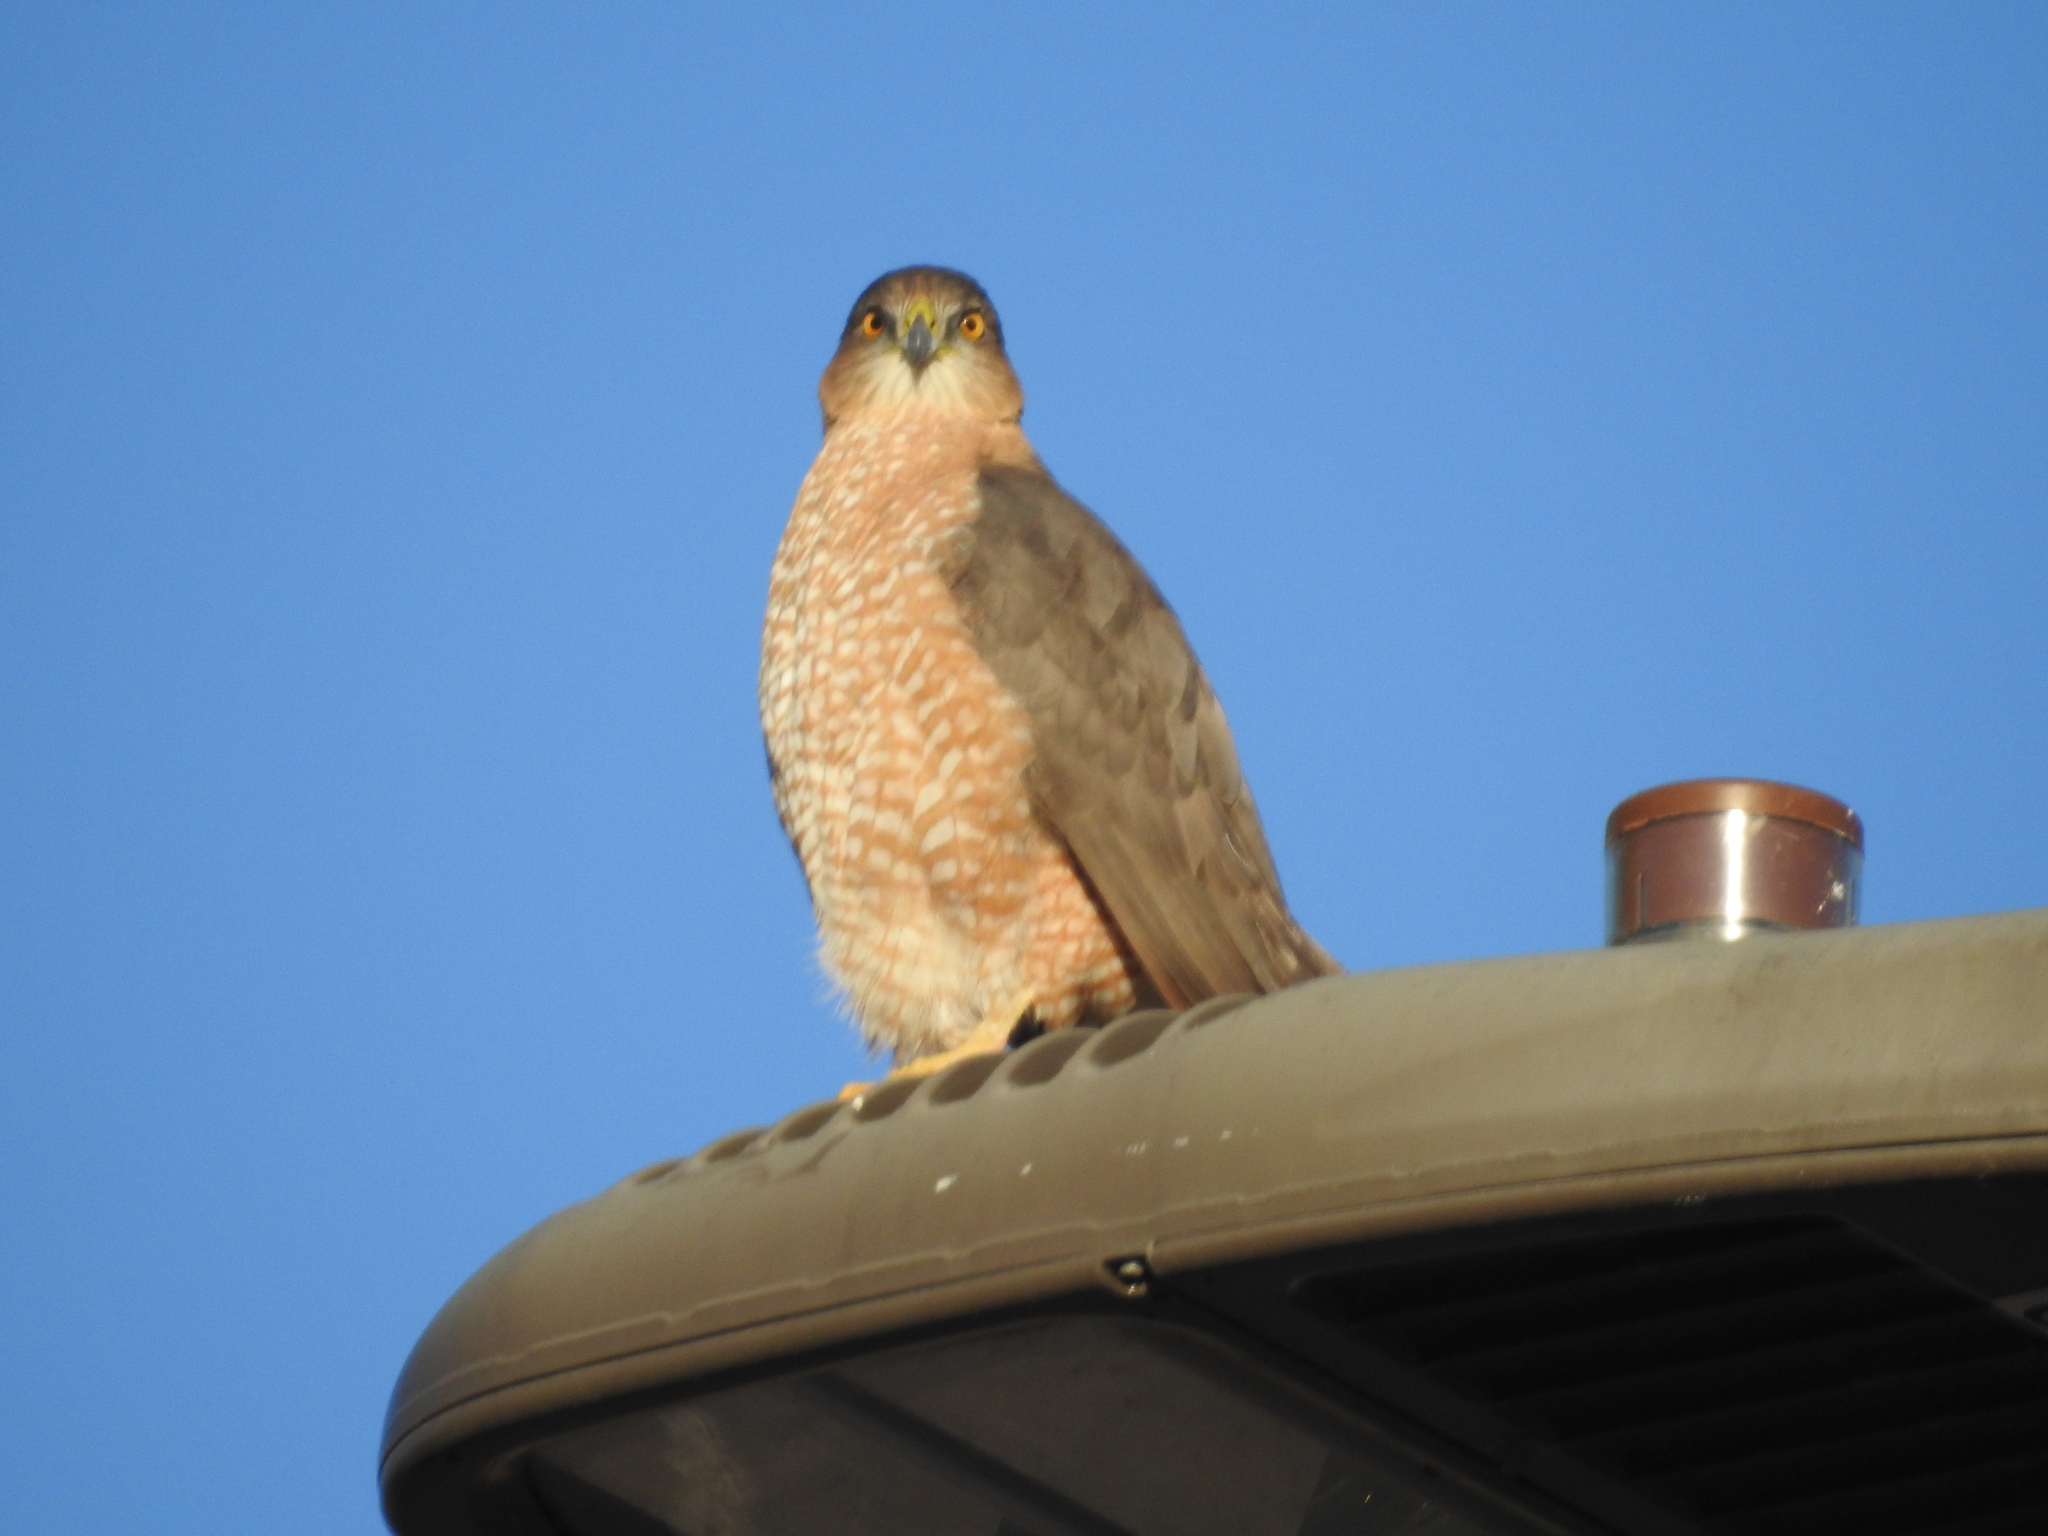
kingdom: Animalia
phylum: Chordata
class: Aves
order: Accipitriformes
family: Accipitridae
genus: Accipiter
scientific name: Accipiter cooperii
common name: Cooper's hawk
